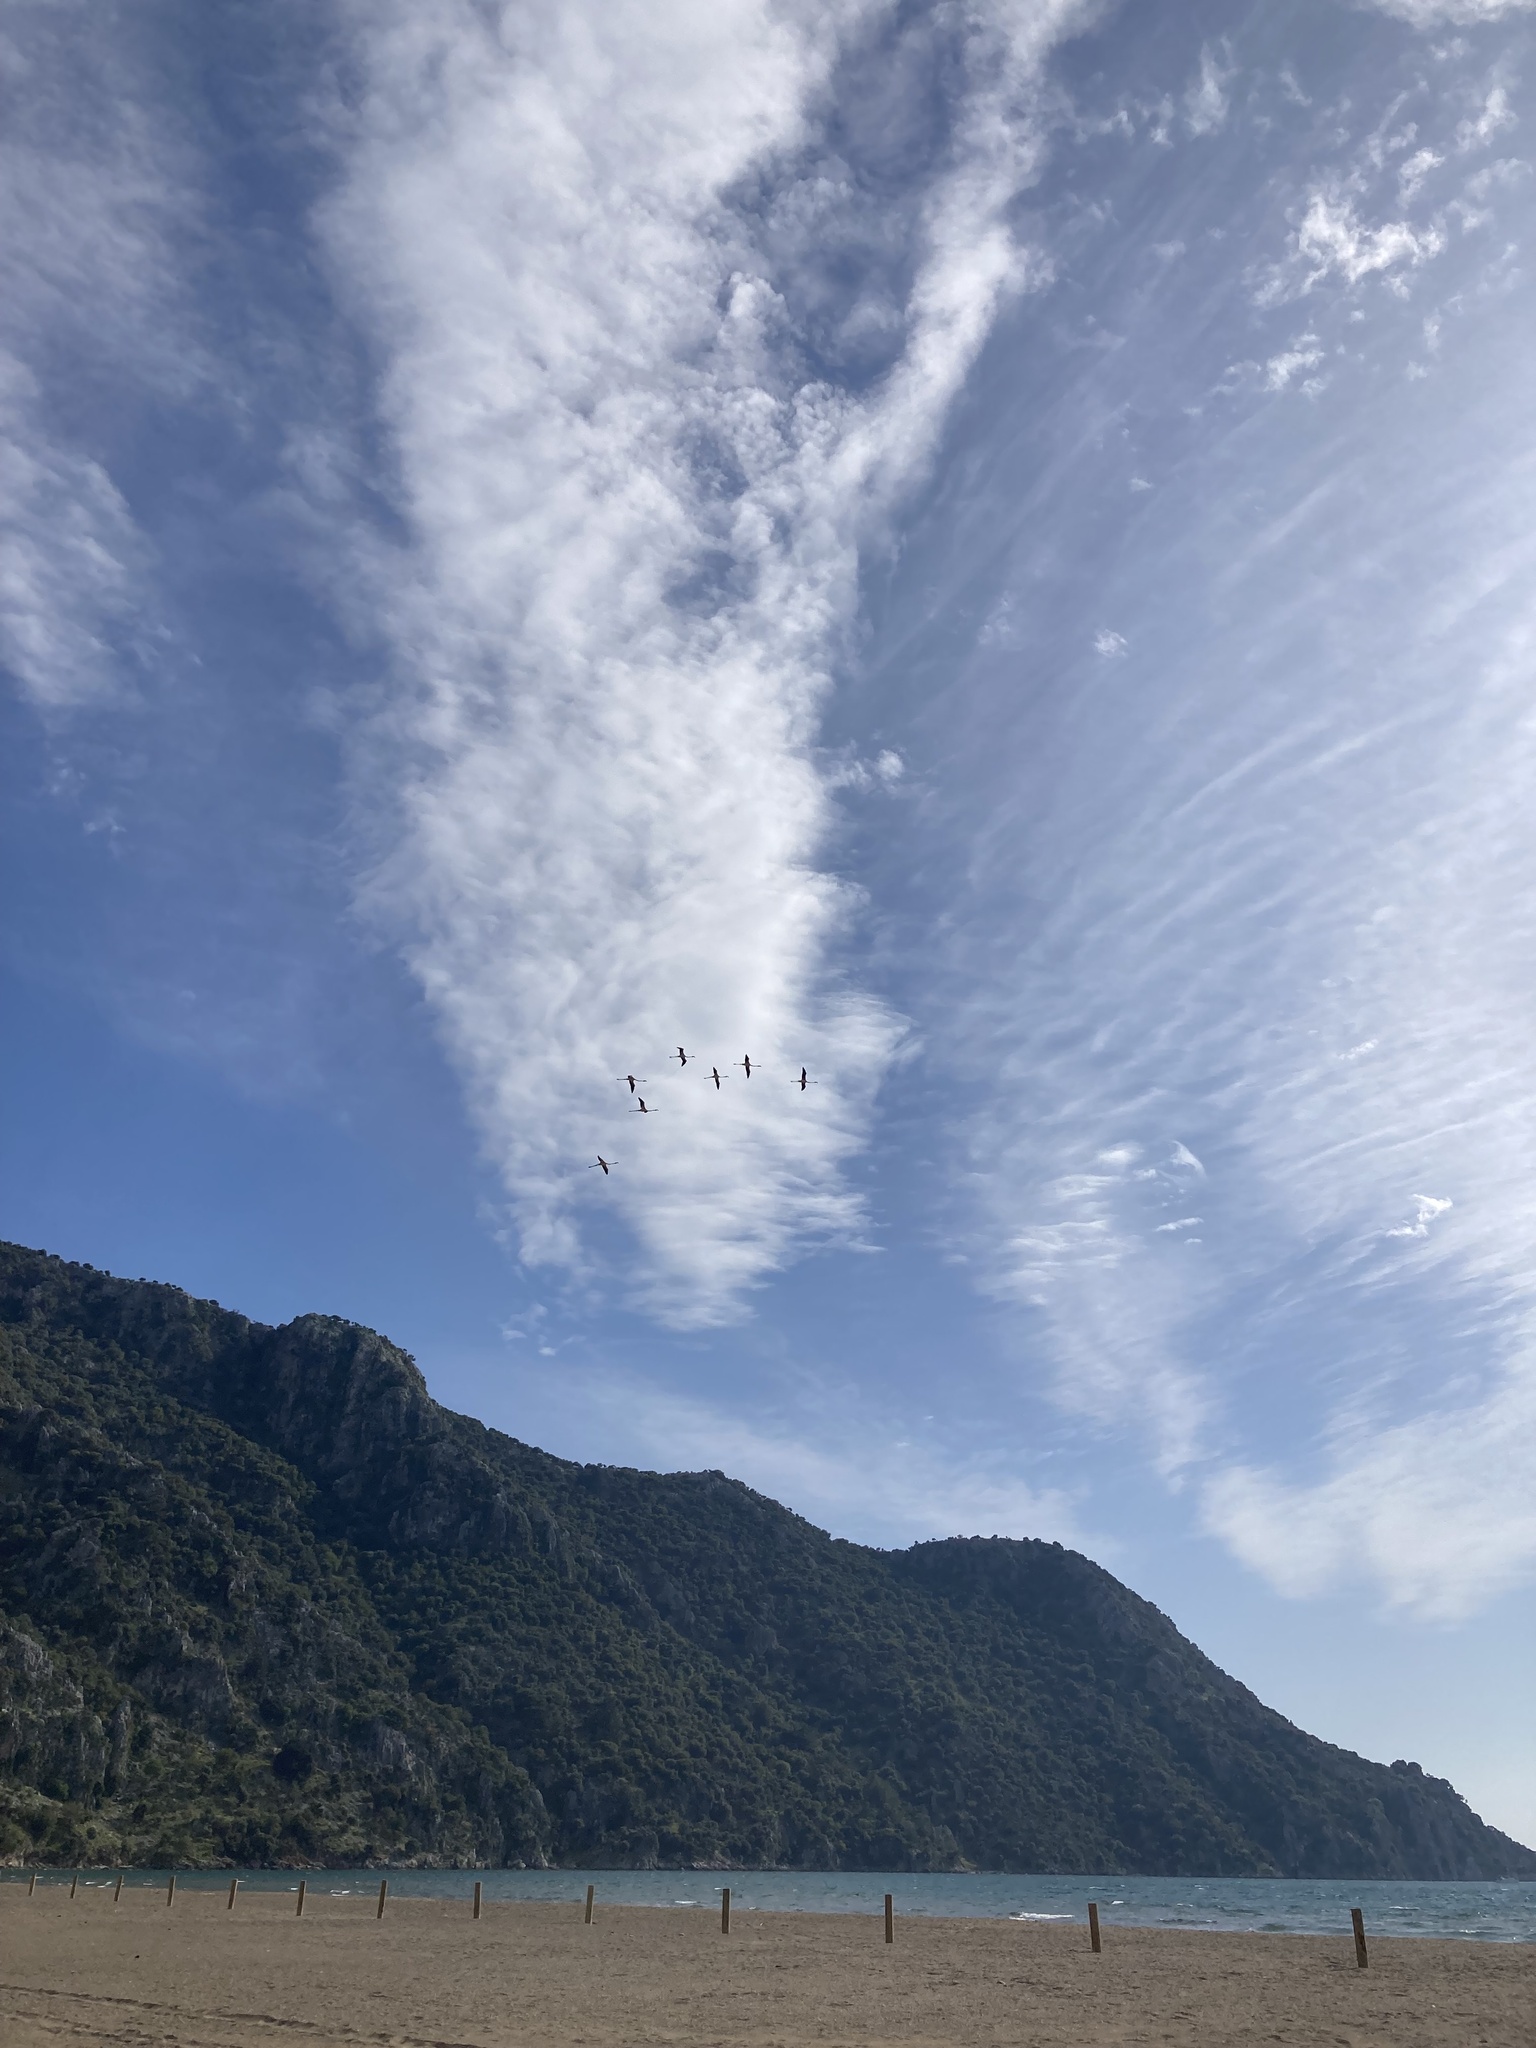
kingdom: Animalia
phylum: Chordata
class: Aves
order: Phoenicopteriformes
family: Phoenicopteridae
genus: Phoenicopterus
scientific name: Phoenicopterus roseus
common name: Greater flamingo
